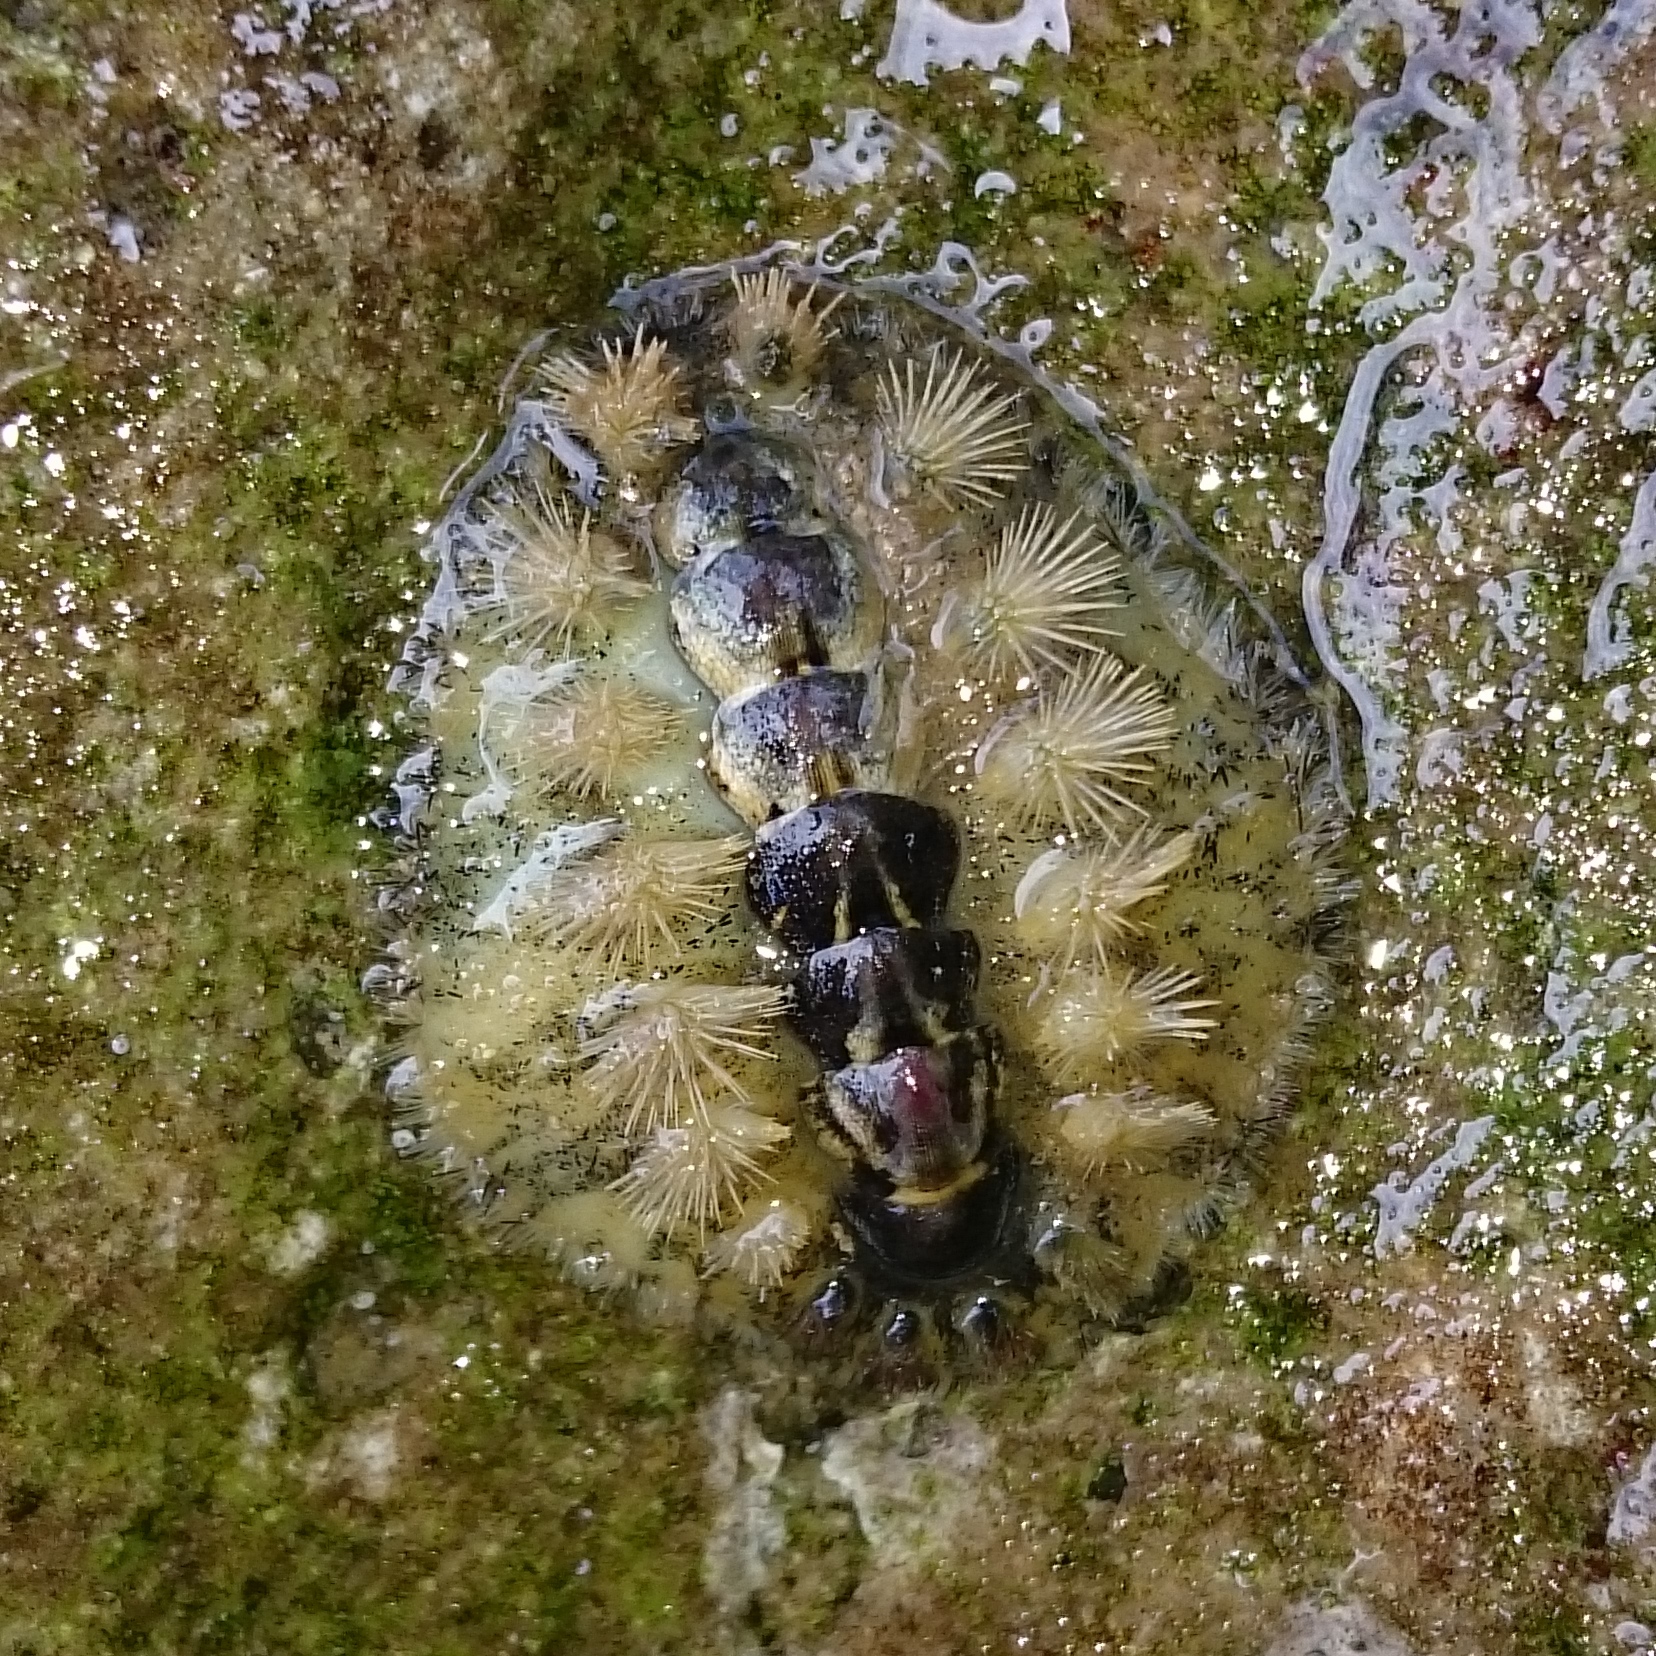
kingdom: Animalia
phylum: Mollusca
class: Polyplacophora
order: Chitonida
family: Acanthochitonidae
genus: Acanthochitona
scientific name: Acanthochitona garnoti
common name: Spiny chiton
